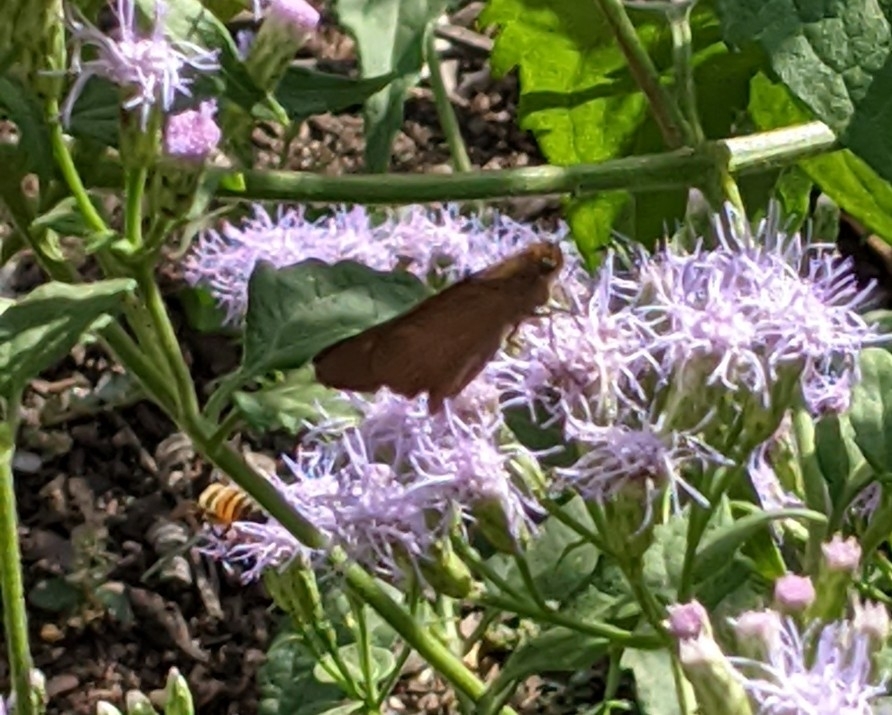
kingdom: Animalia
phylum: Arthropoda
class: Insecta
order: Lepidoptera
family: Hesperiidae
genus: Panoquina
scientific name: Panoquina ocola
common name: Ocola skipper
